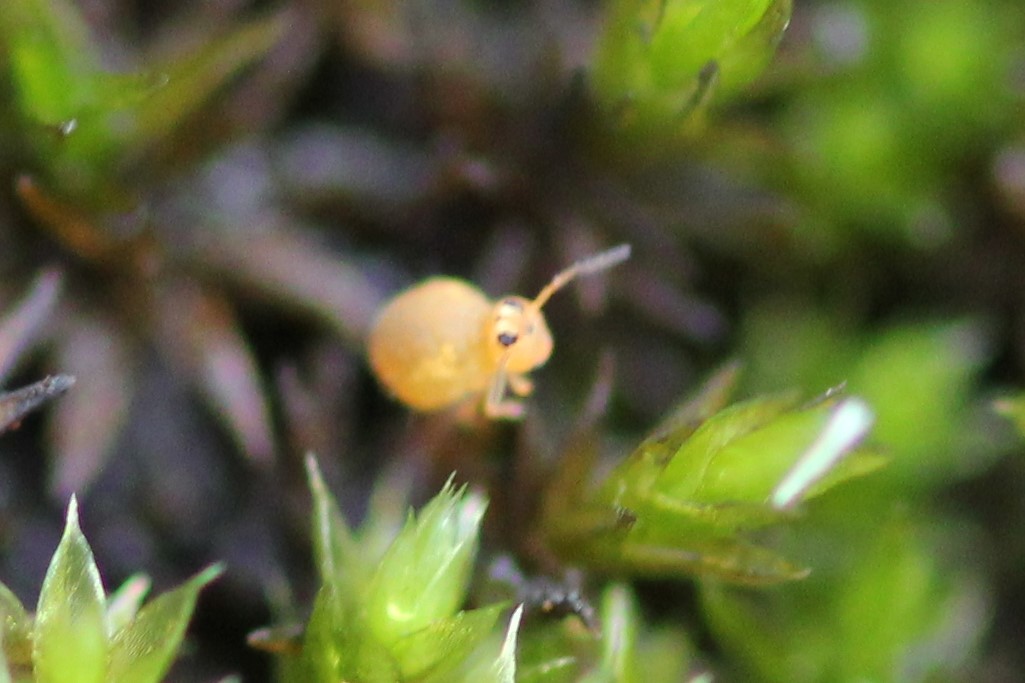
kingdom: Animalia
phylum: Arthropoda
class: Collembola
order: Symphypleona
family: Katiannidae
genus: Sminthurinus
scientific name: Sminthurinus henshawi
